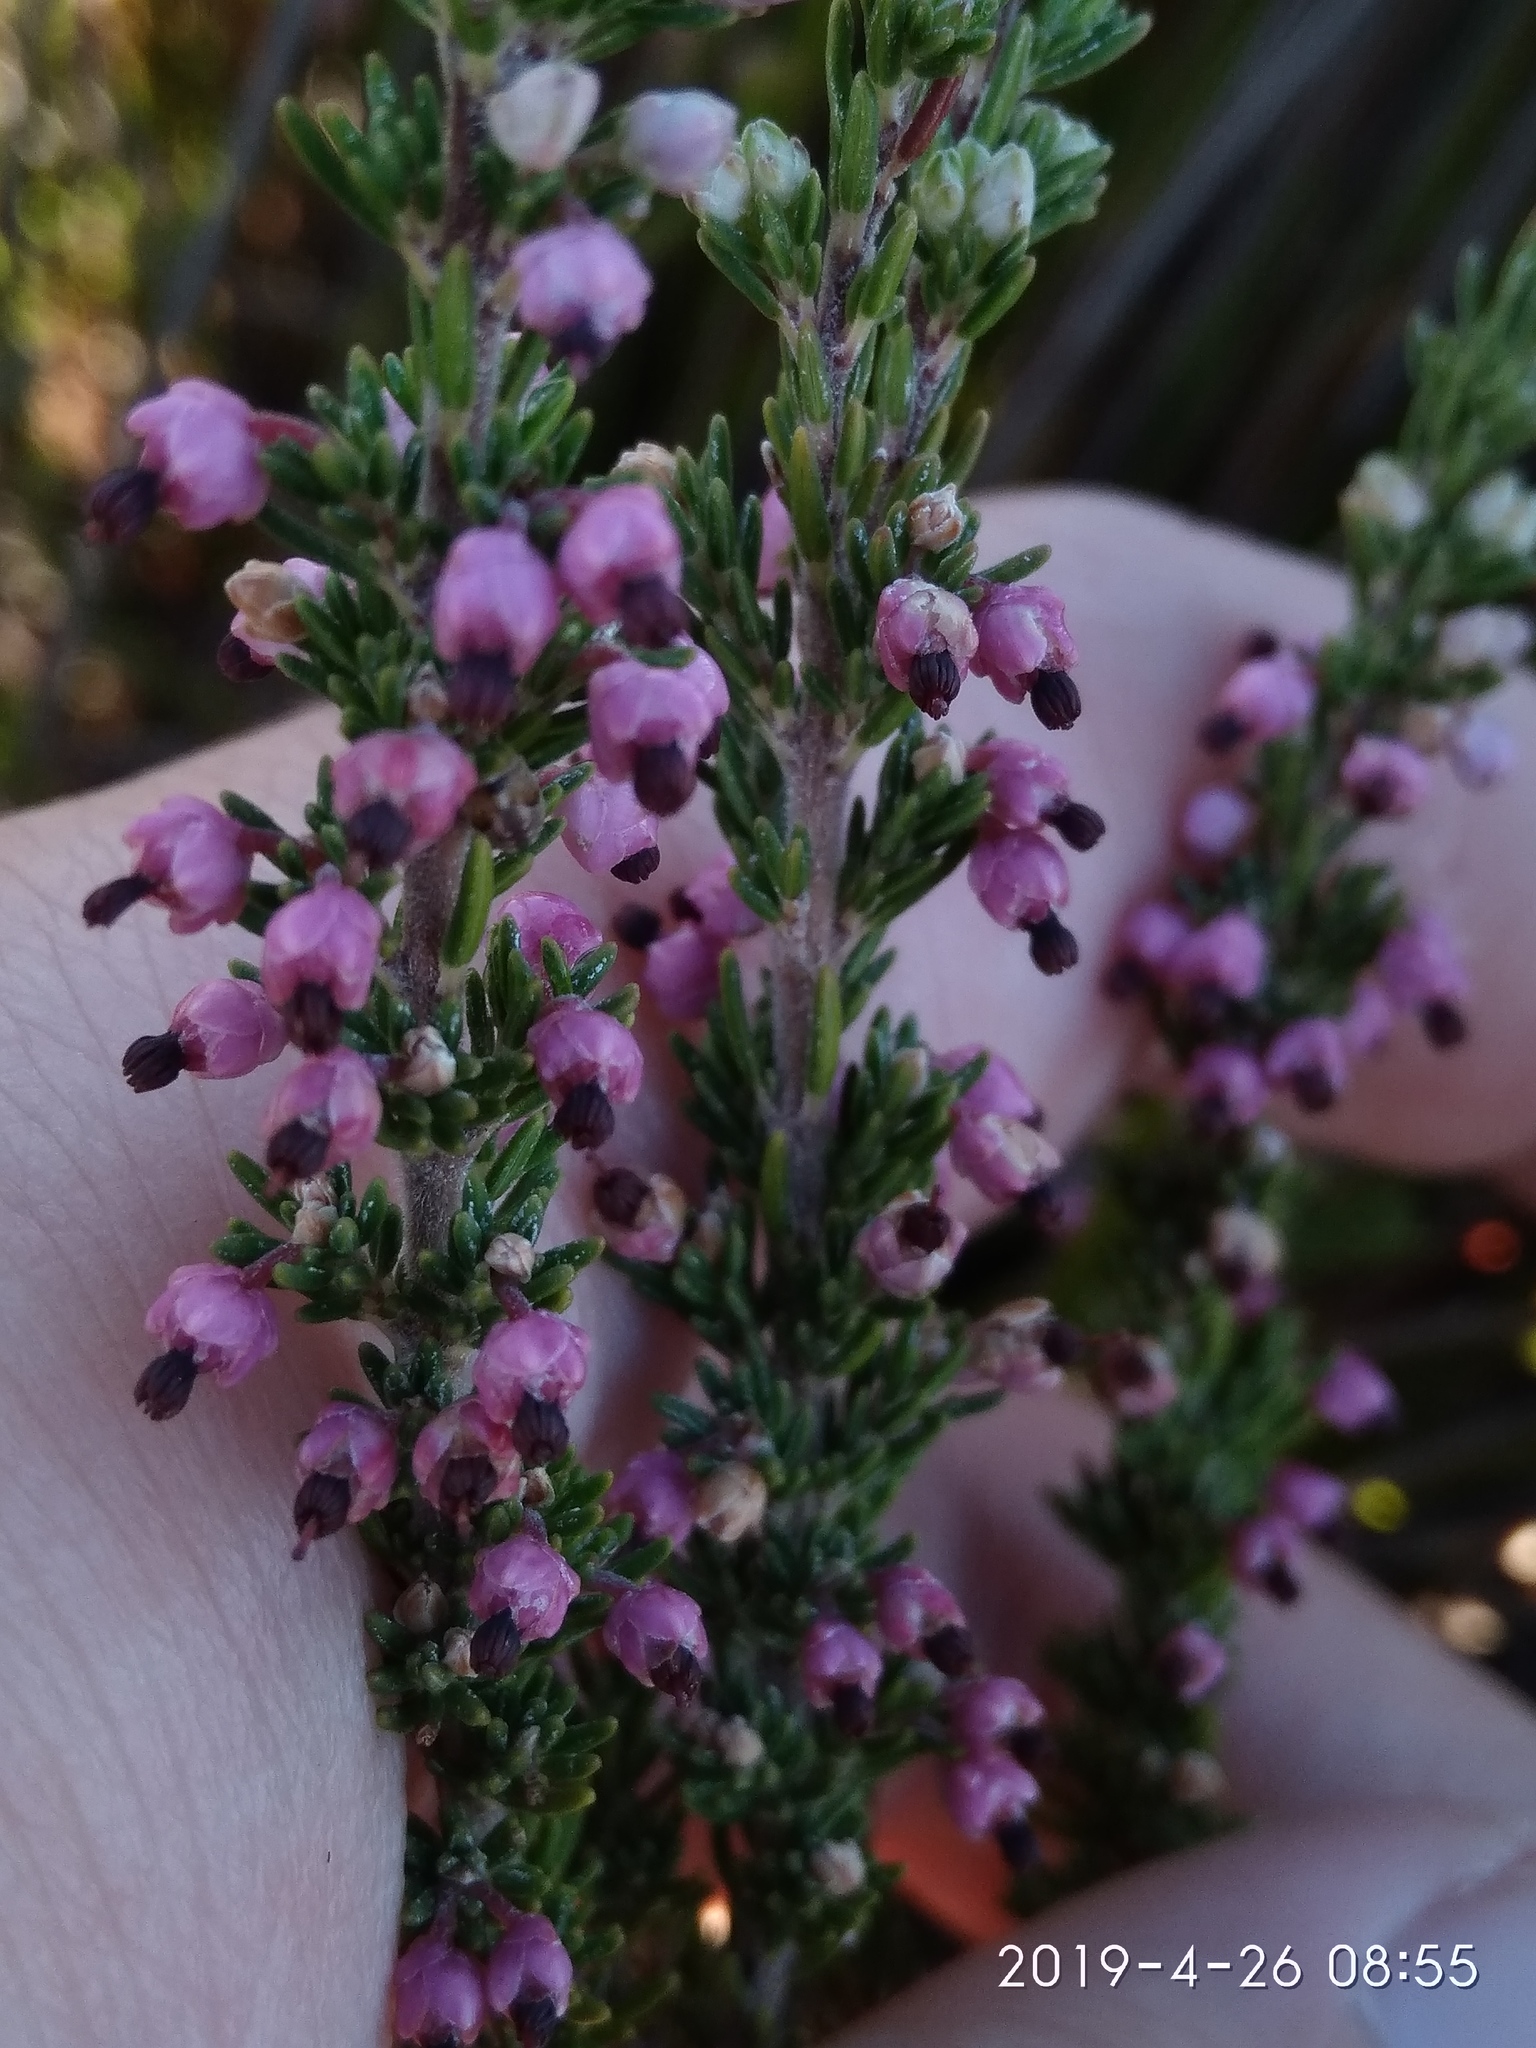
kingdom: Plantae
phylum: Tracheophyta
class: Magnoliopsida
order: Ericales
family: Ericaceae
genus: Erica
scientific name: Erica placentiflora
